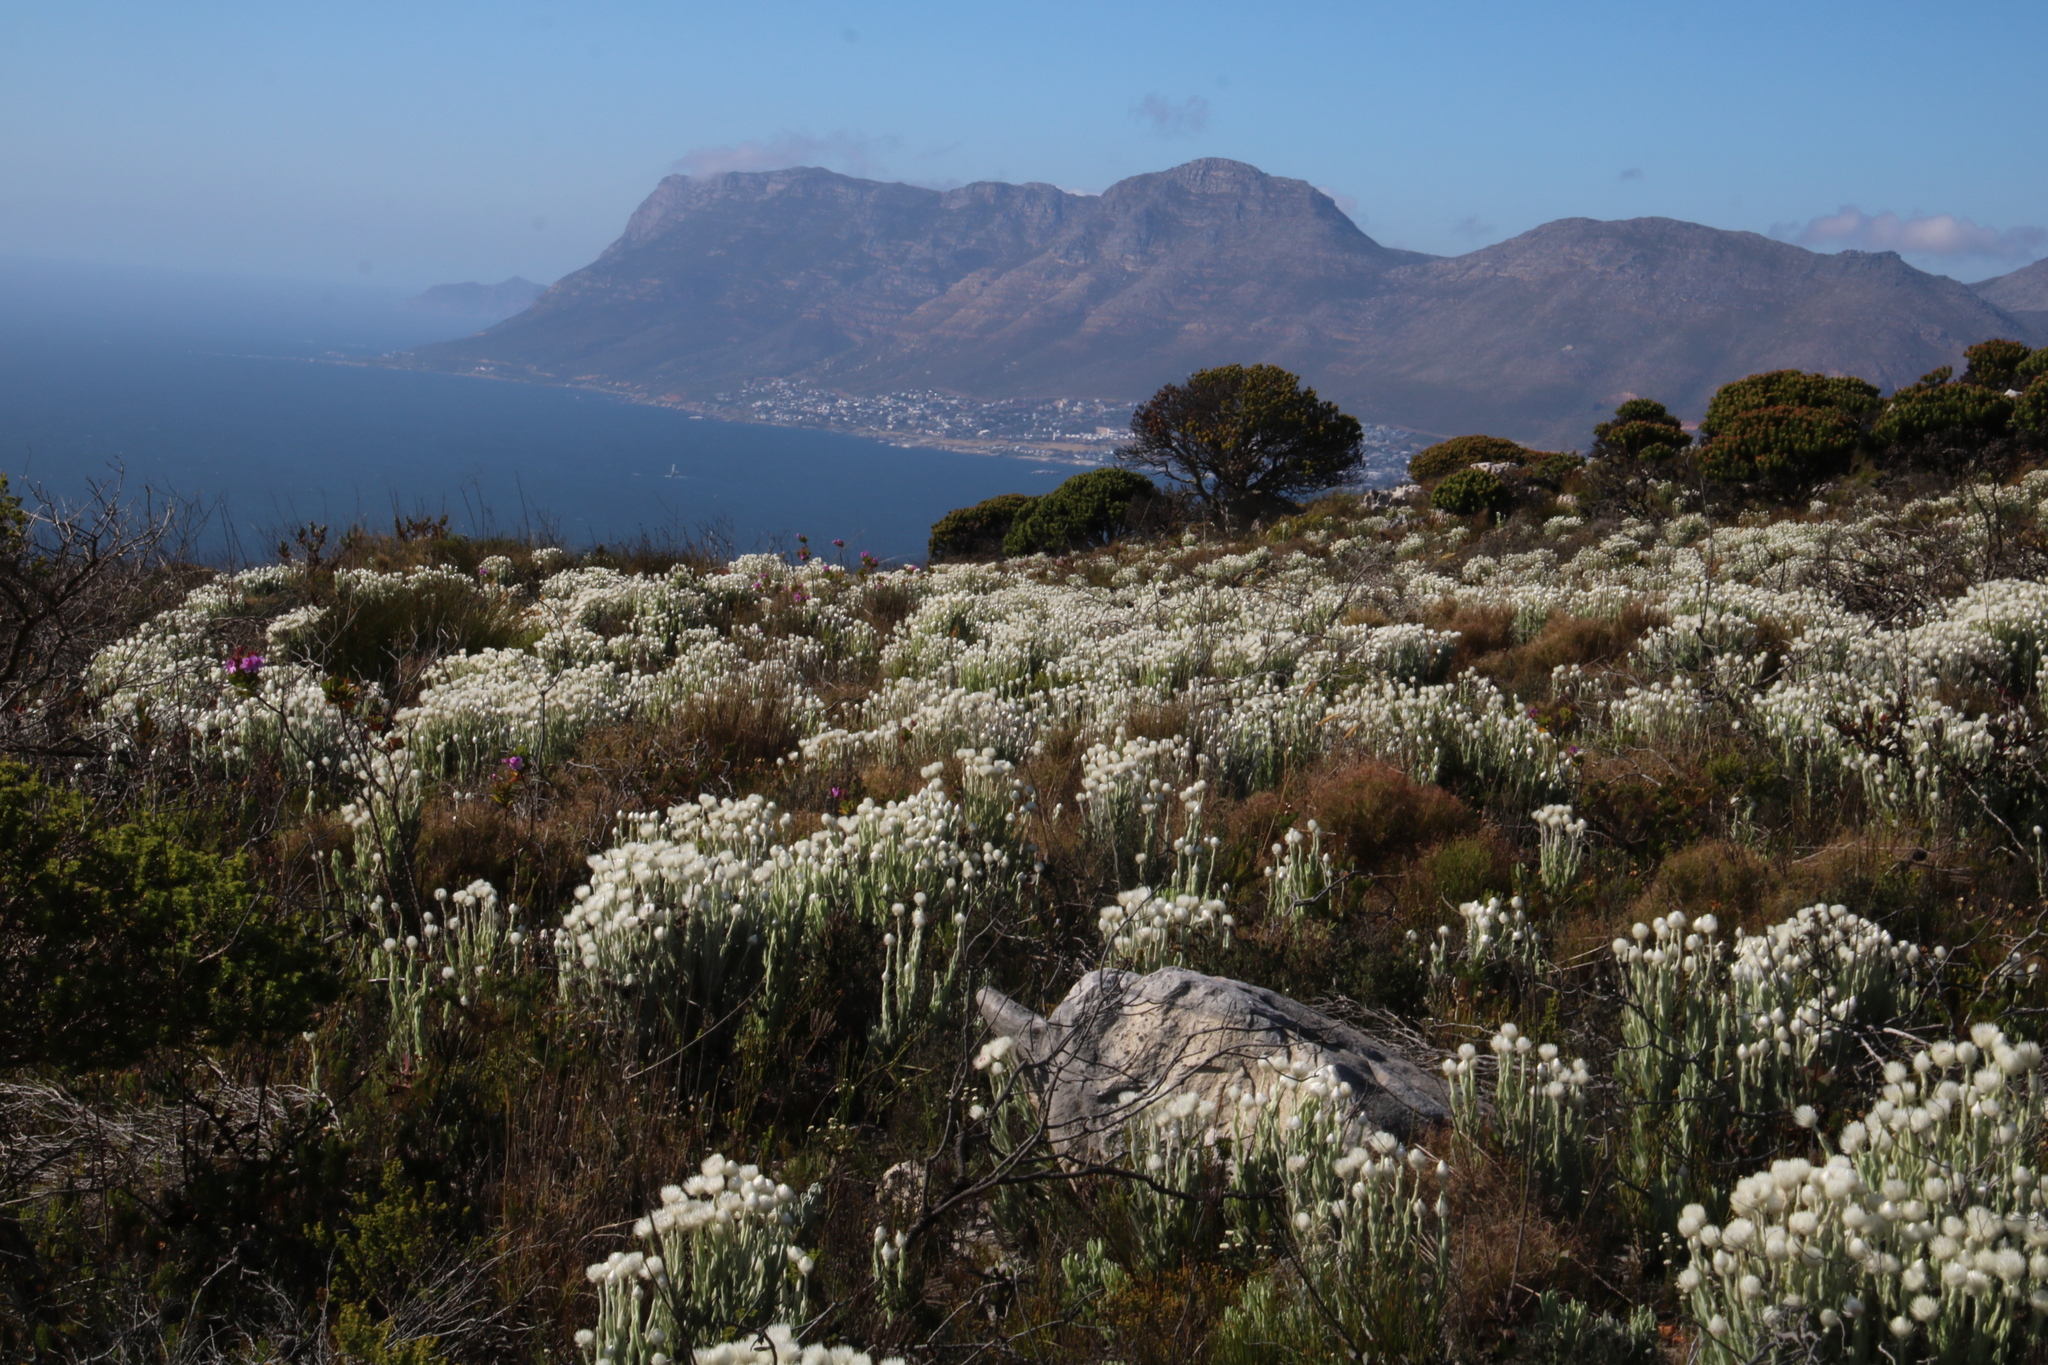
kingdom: Plantae
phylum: Tracheophyta
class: Magnoliopsida
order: Asterales
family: Asteraceae
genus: Syncarpha
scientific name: Syncarpha vestita
